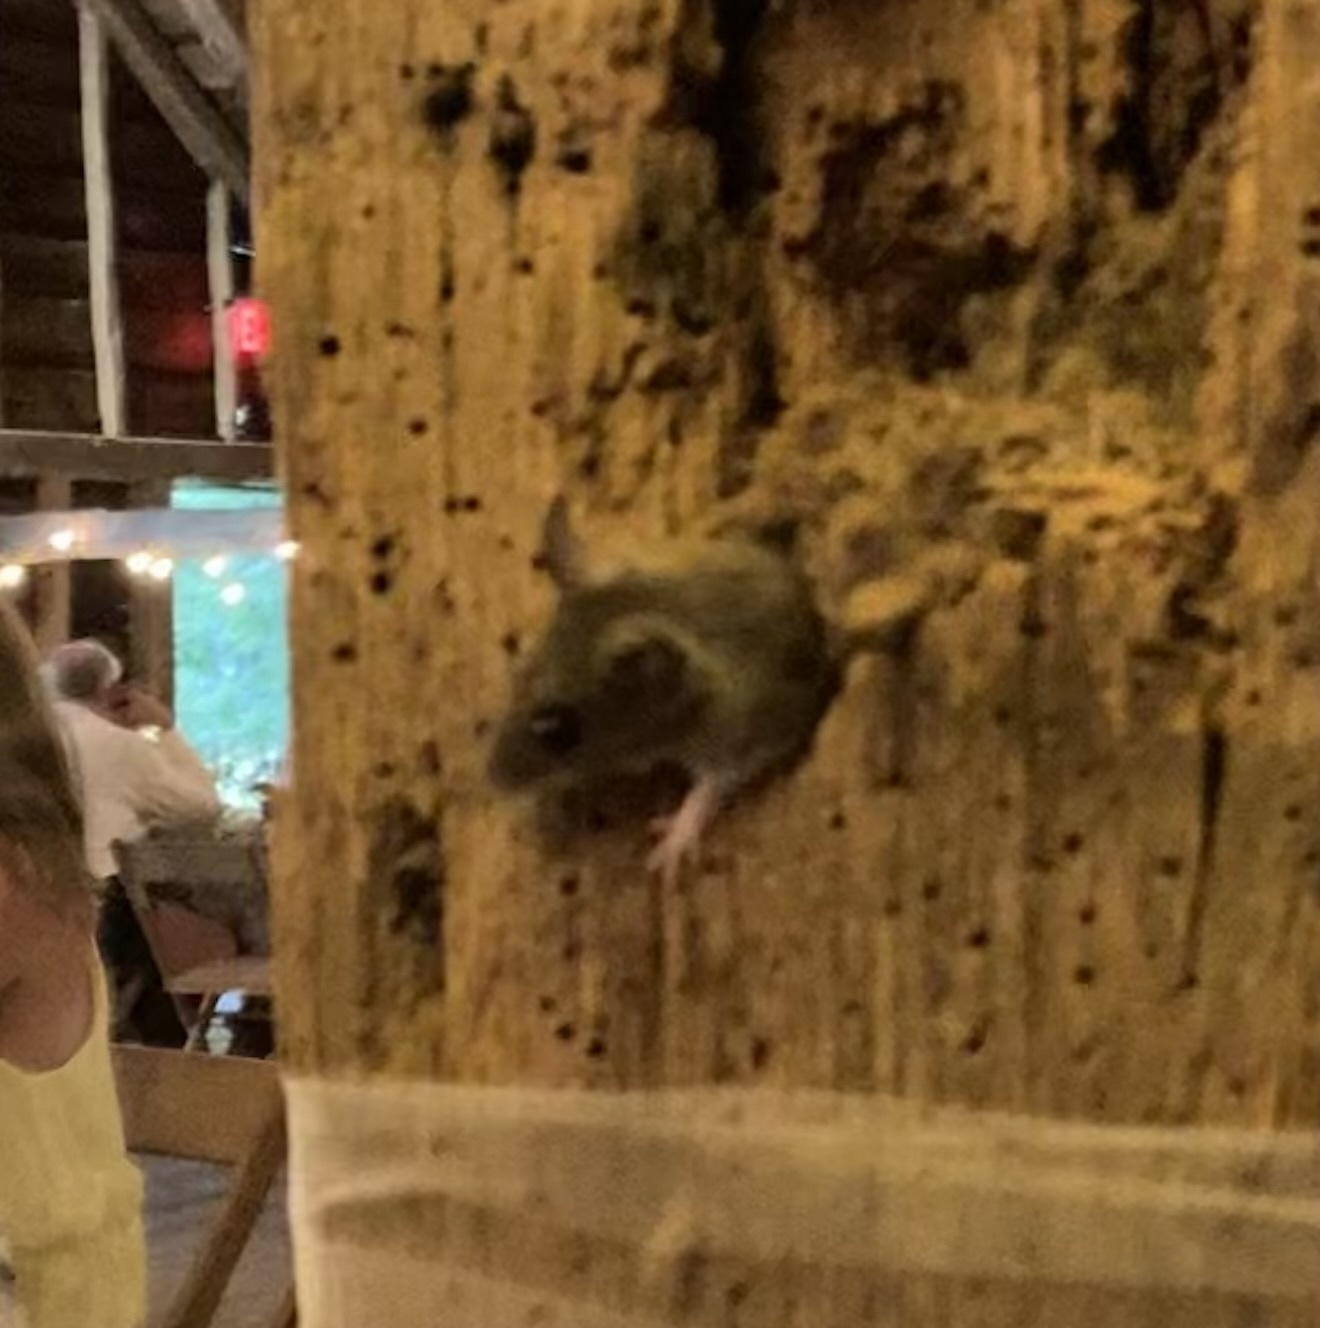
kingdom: Animalia
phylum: Chordata
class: Mammalia
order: Rodentia
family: Muridae
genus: Mus
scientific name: Mus musculus
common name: House mouse
